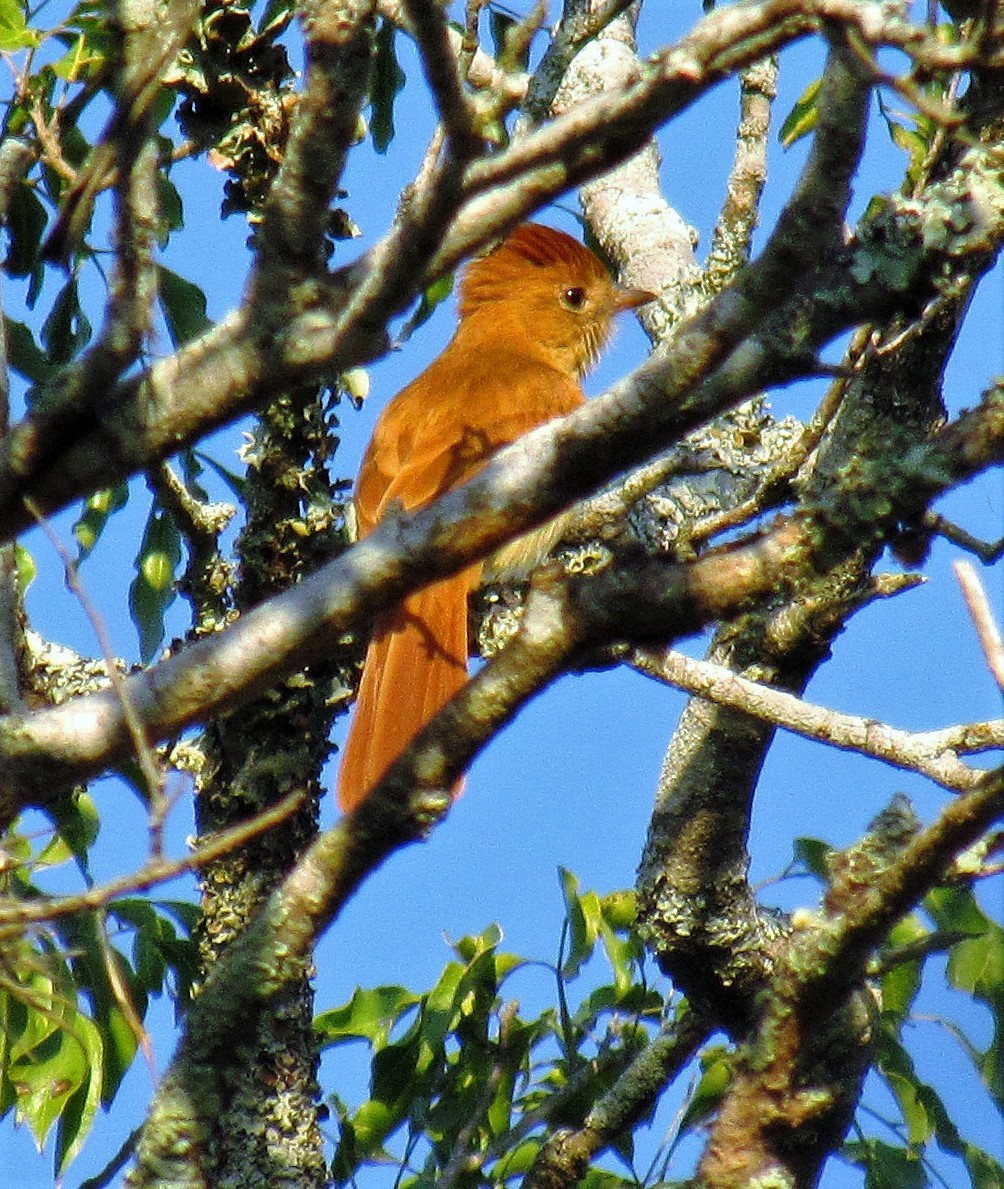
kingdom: Animalia
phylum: Chordata
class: Aves
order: Passeriformes
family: Tyrannidae
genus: Casiornis
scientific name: Casiornis rufus
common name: Rufous casiornis
